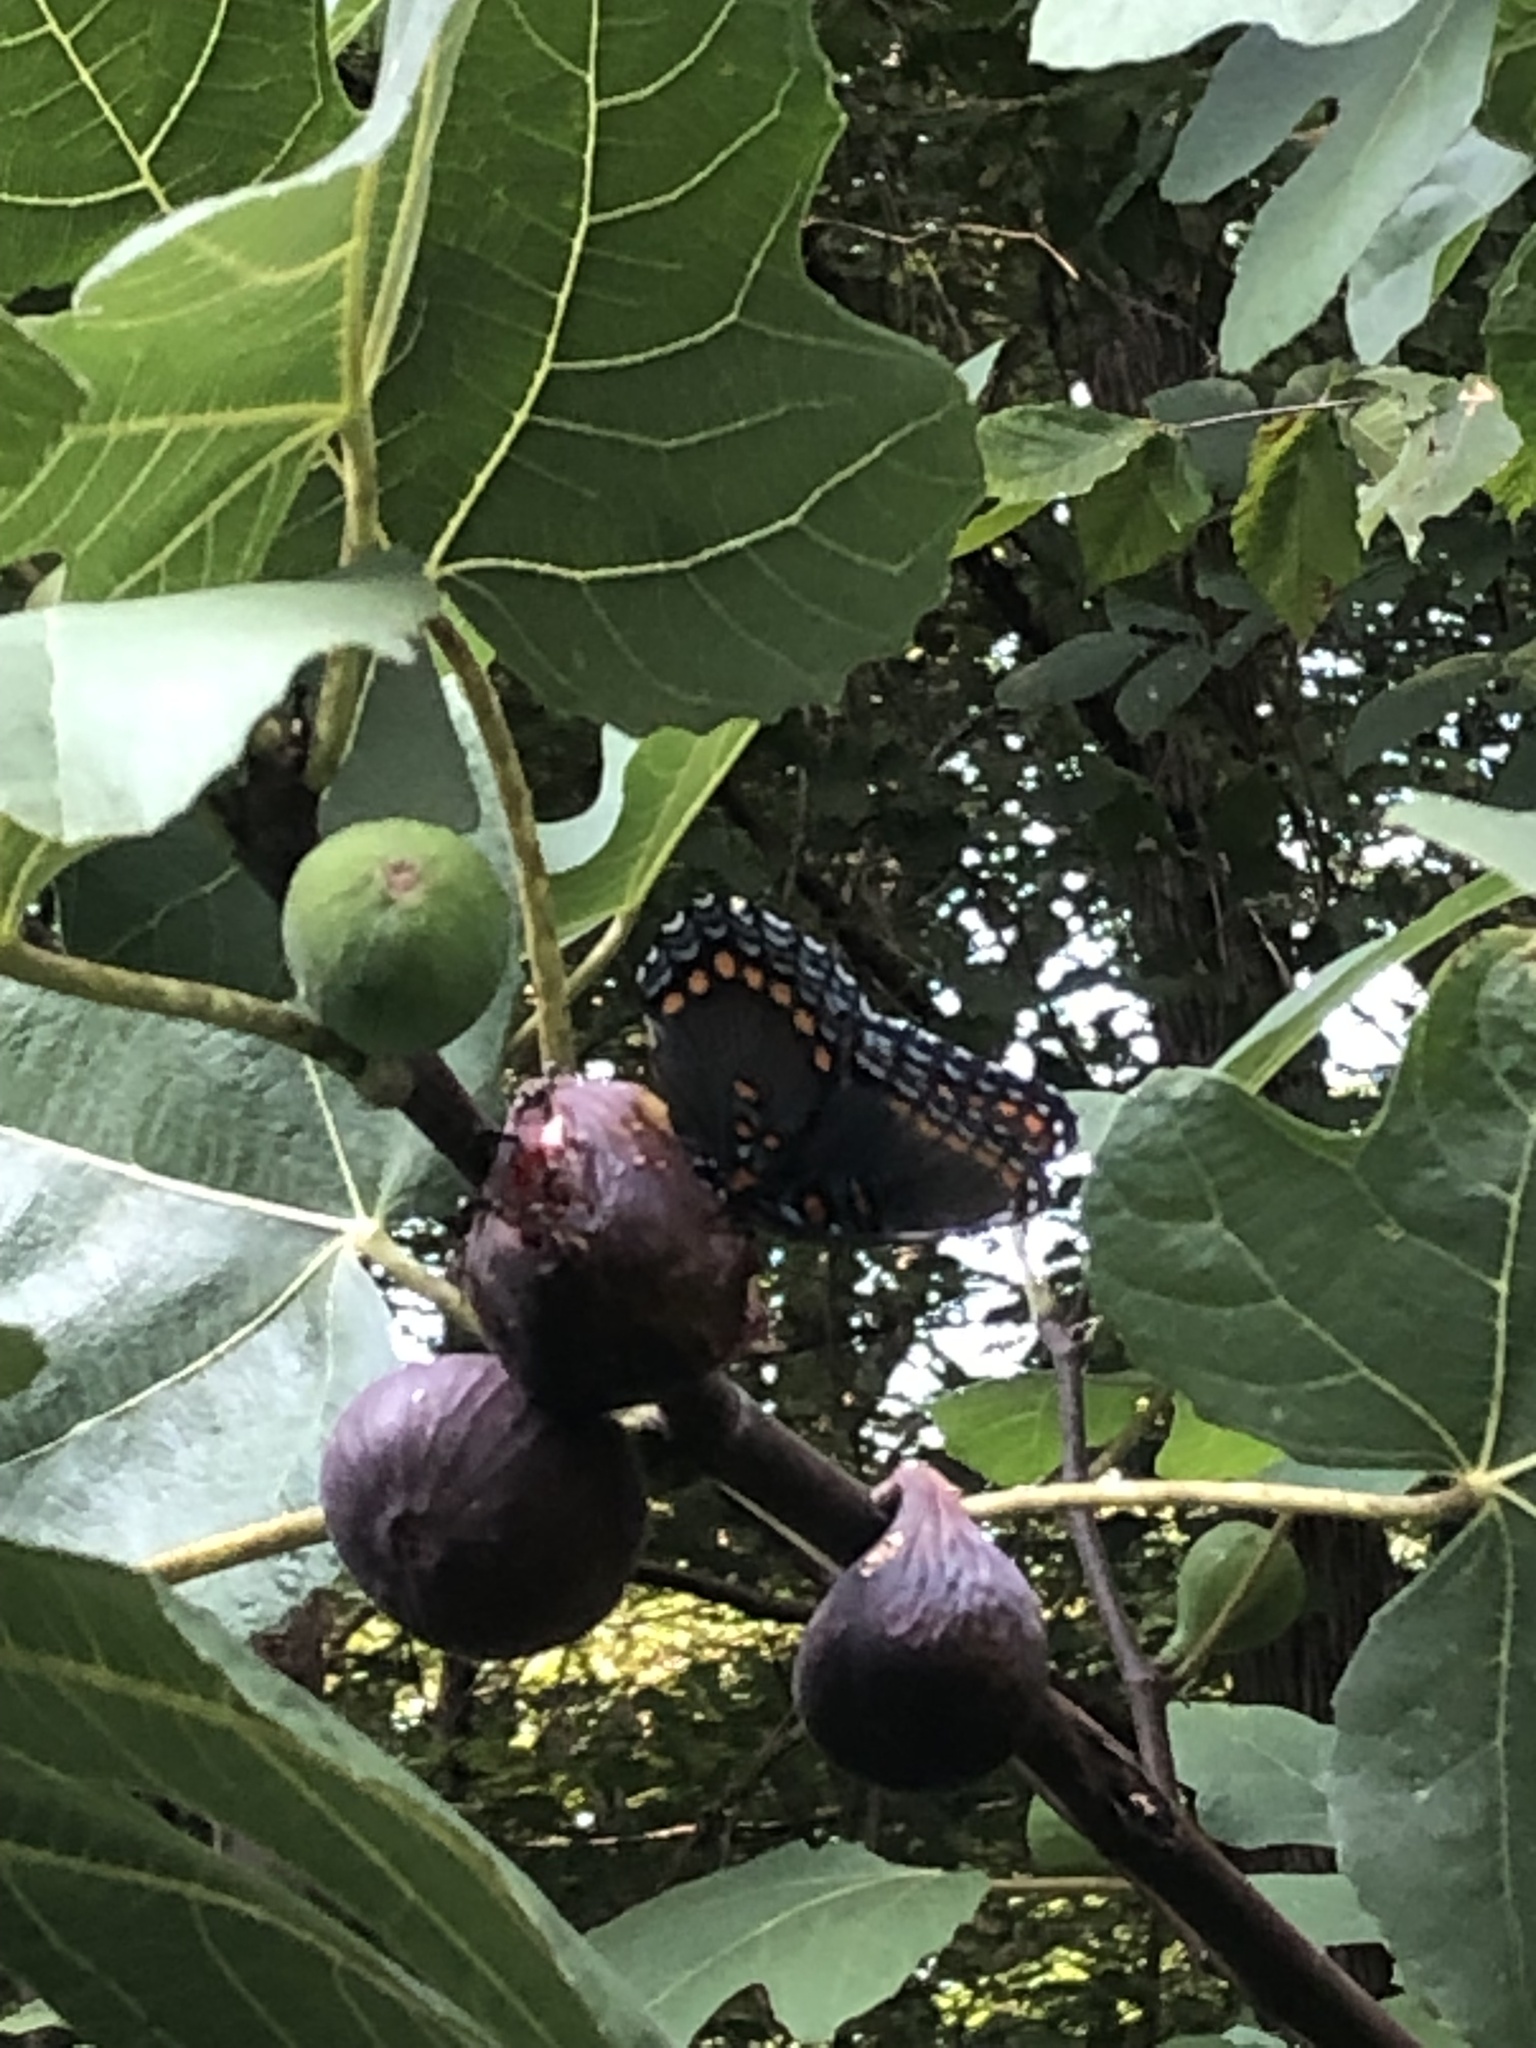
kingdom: Animalia
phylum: Arthropoda
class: Insecta
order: Lepidoptera
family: Nymphalidae
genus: Limenitis
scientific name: Limenitis astyanax
